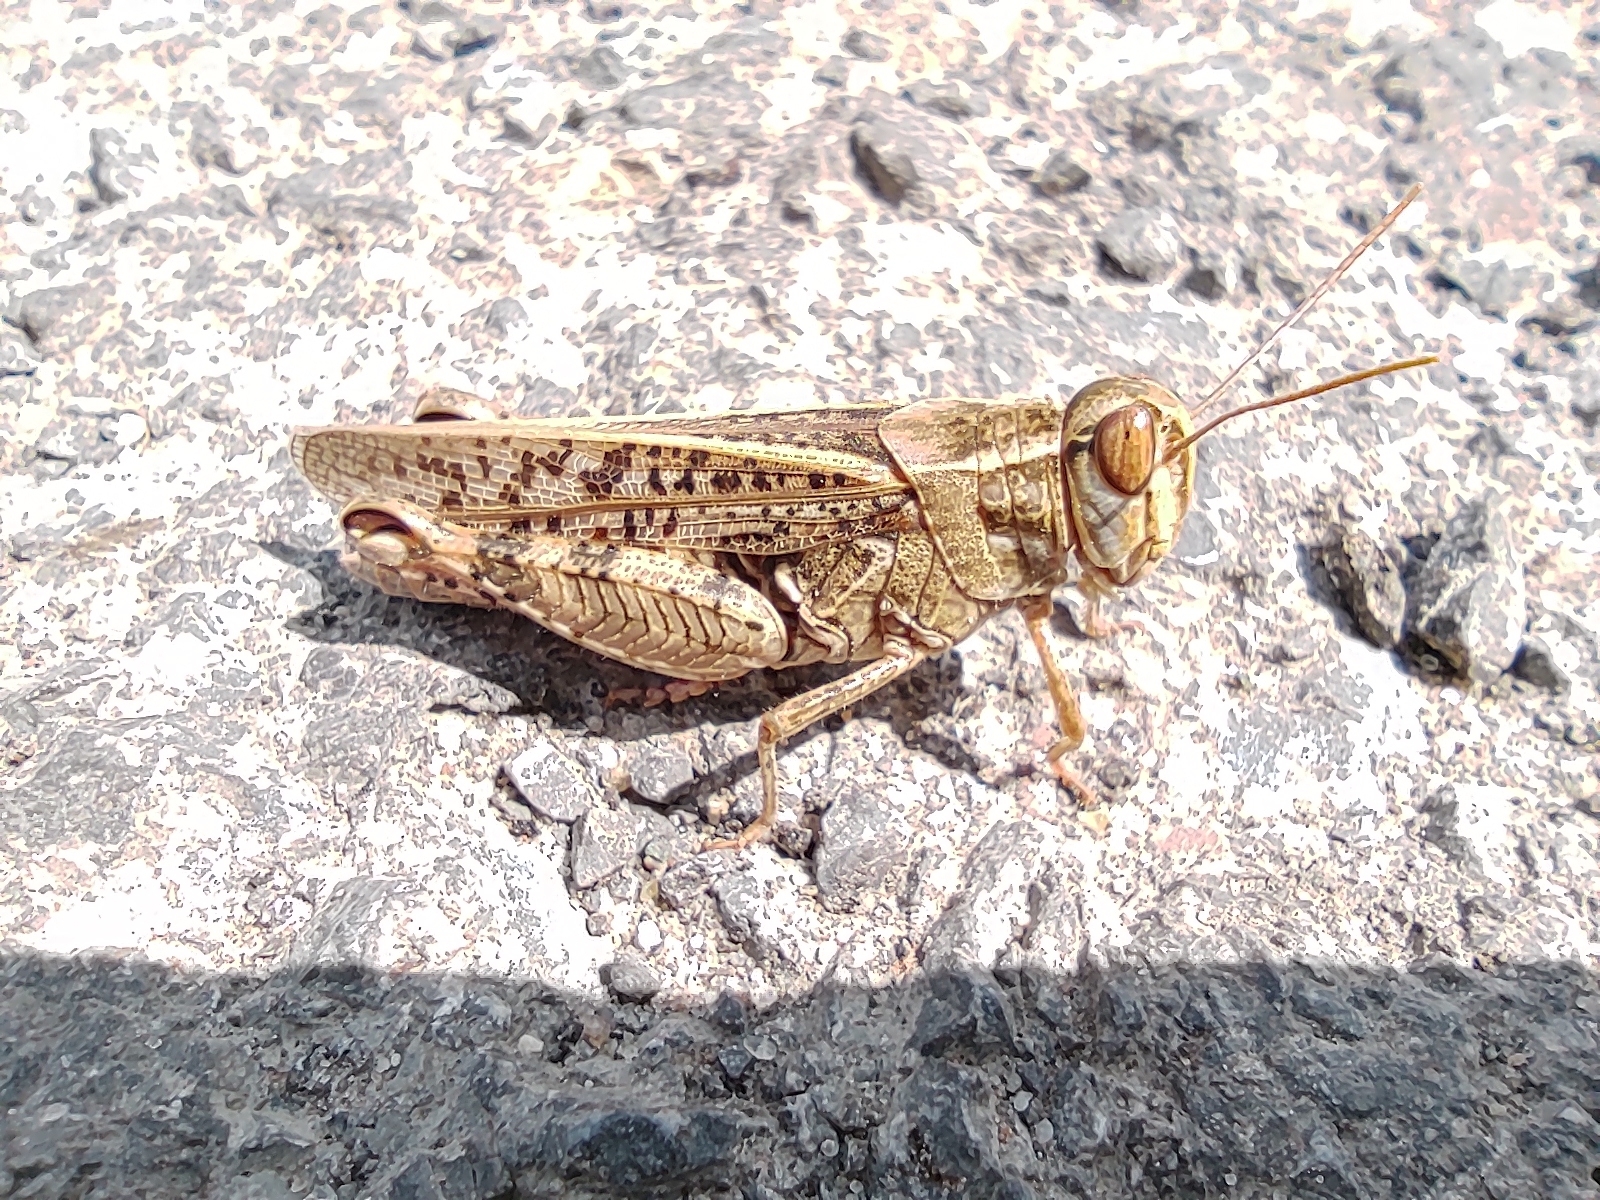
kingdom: Animalia
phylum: Arthropoda
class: Insecta
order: Orthoptera
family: Acrididae
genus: Calliptamus
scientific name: Calliptamus italicus
